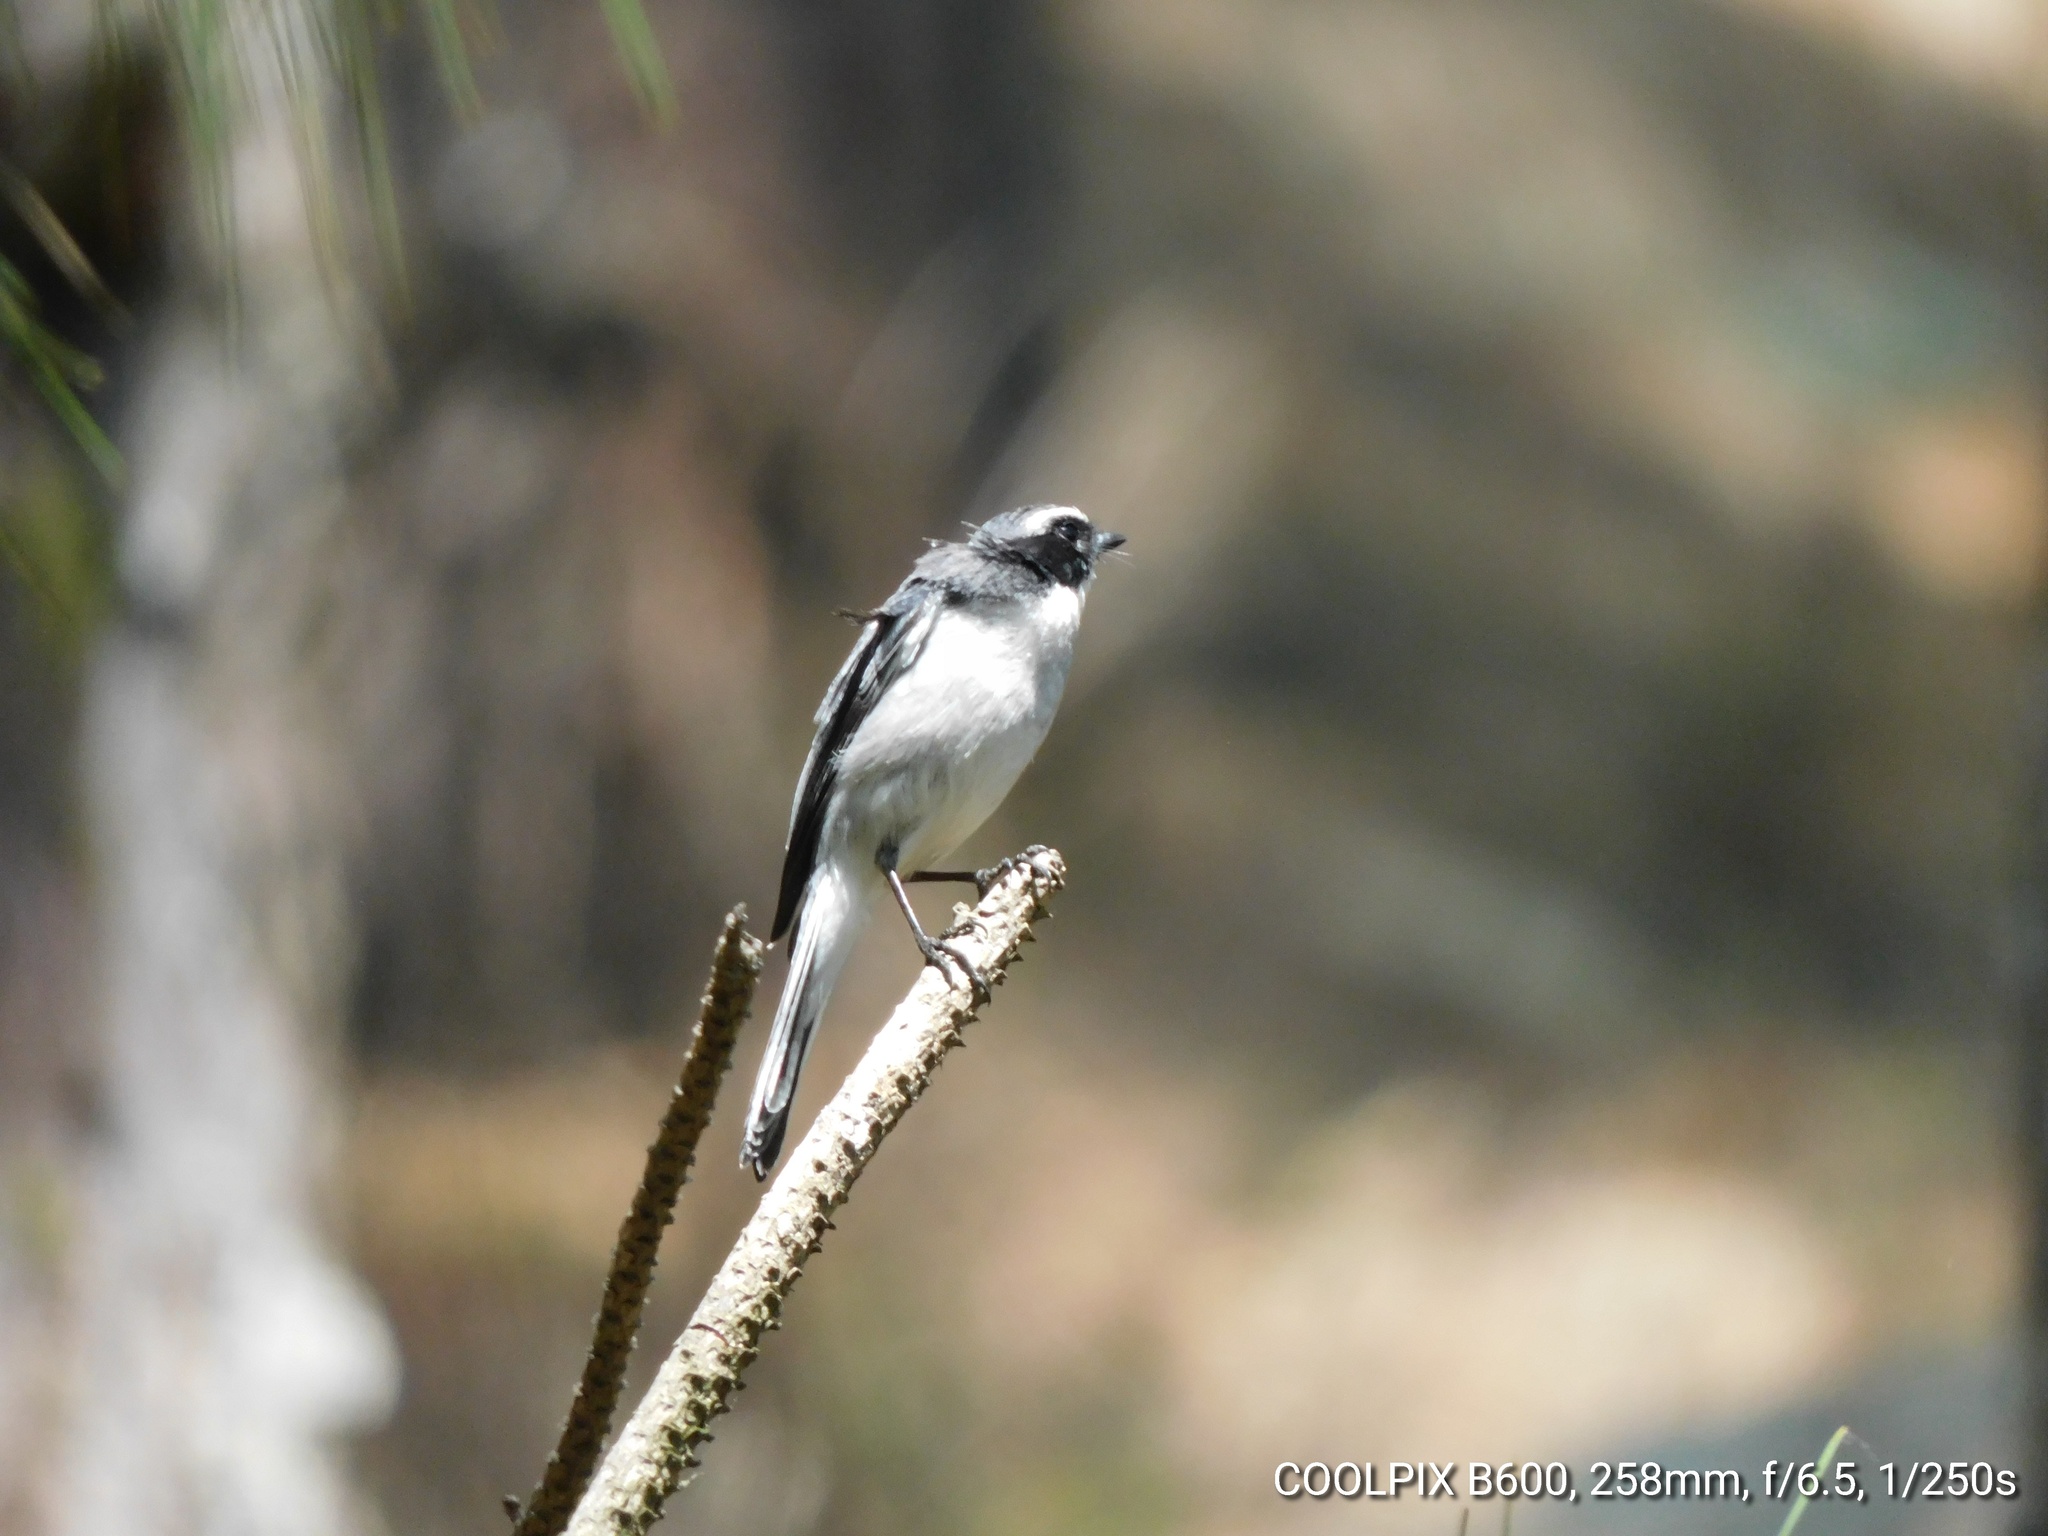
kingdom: Animalia
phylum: Chordata
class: Aves
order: Passeriformes
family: Muscicapidae
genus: Saxicola
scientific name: Saxicola ferreus
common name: Grey bush chat
